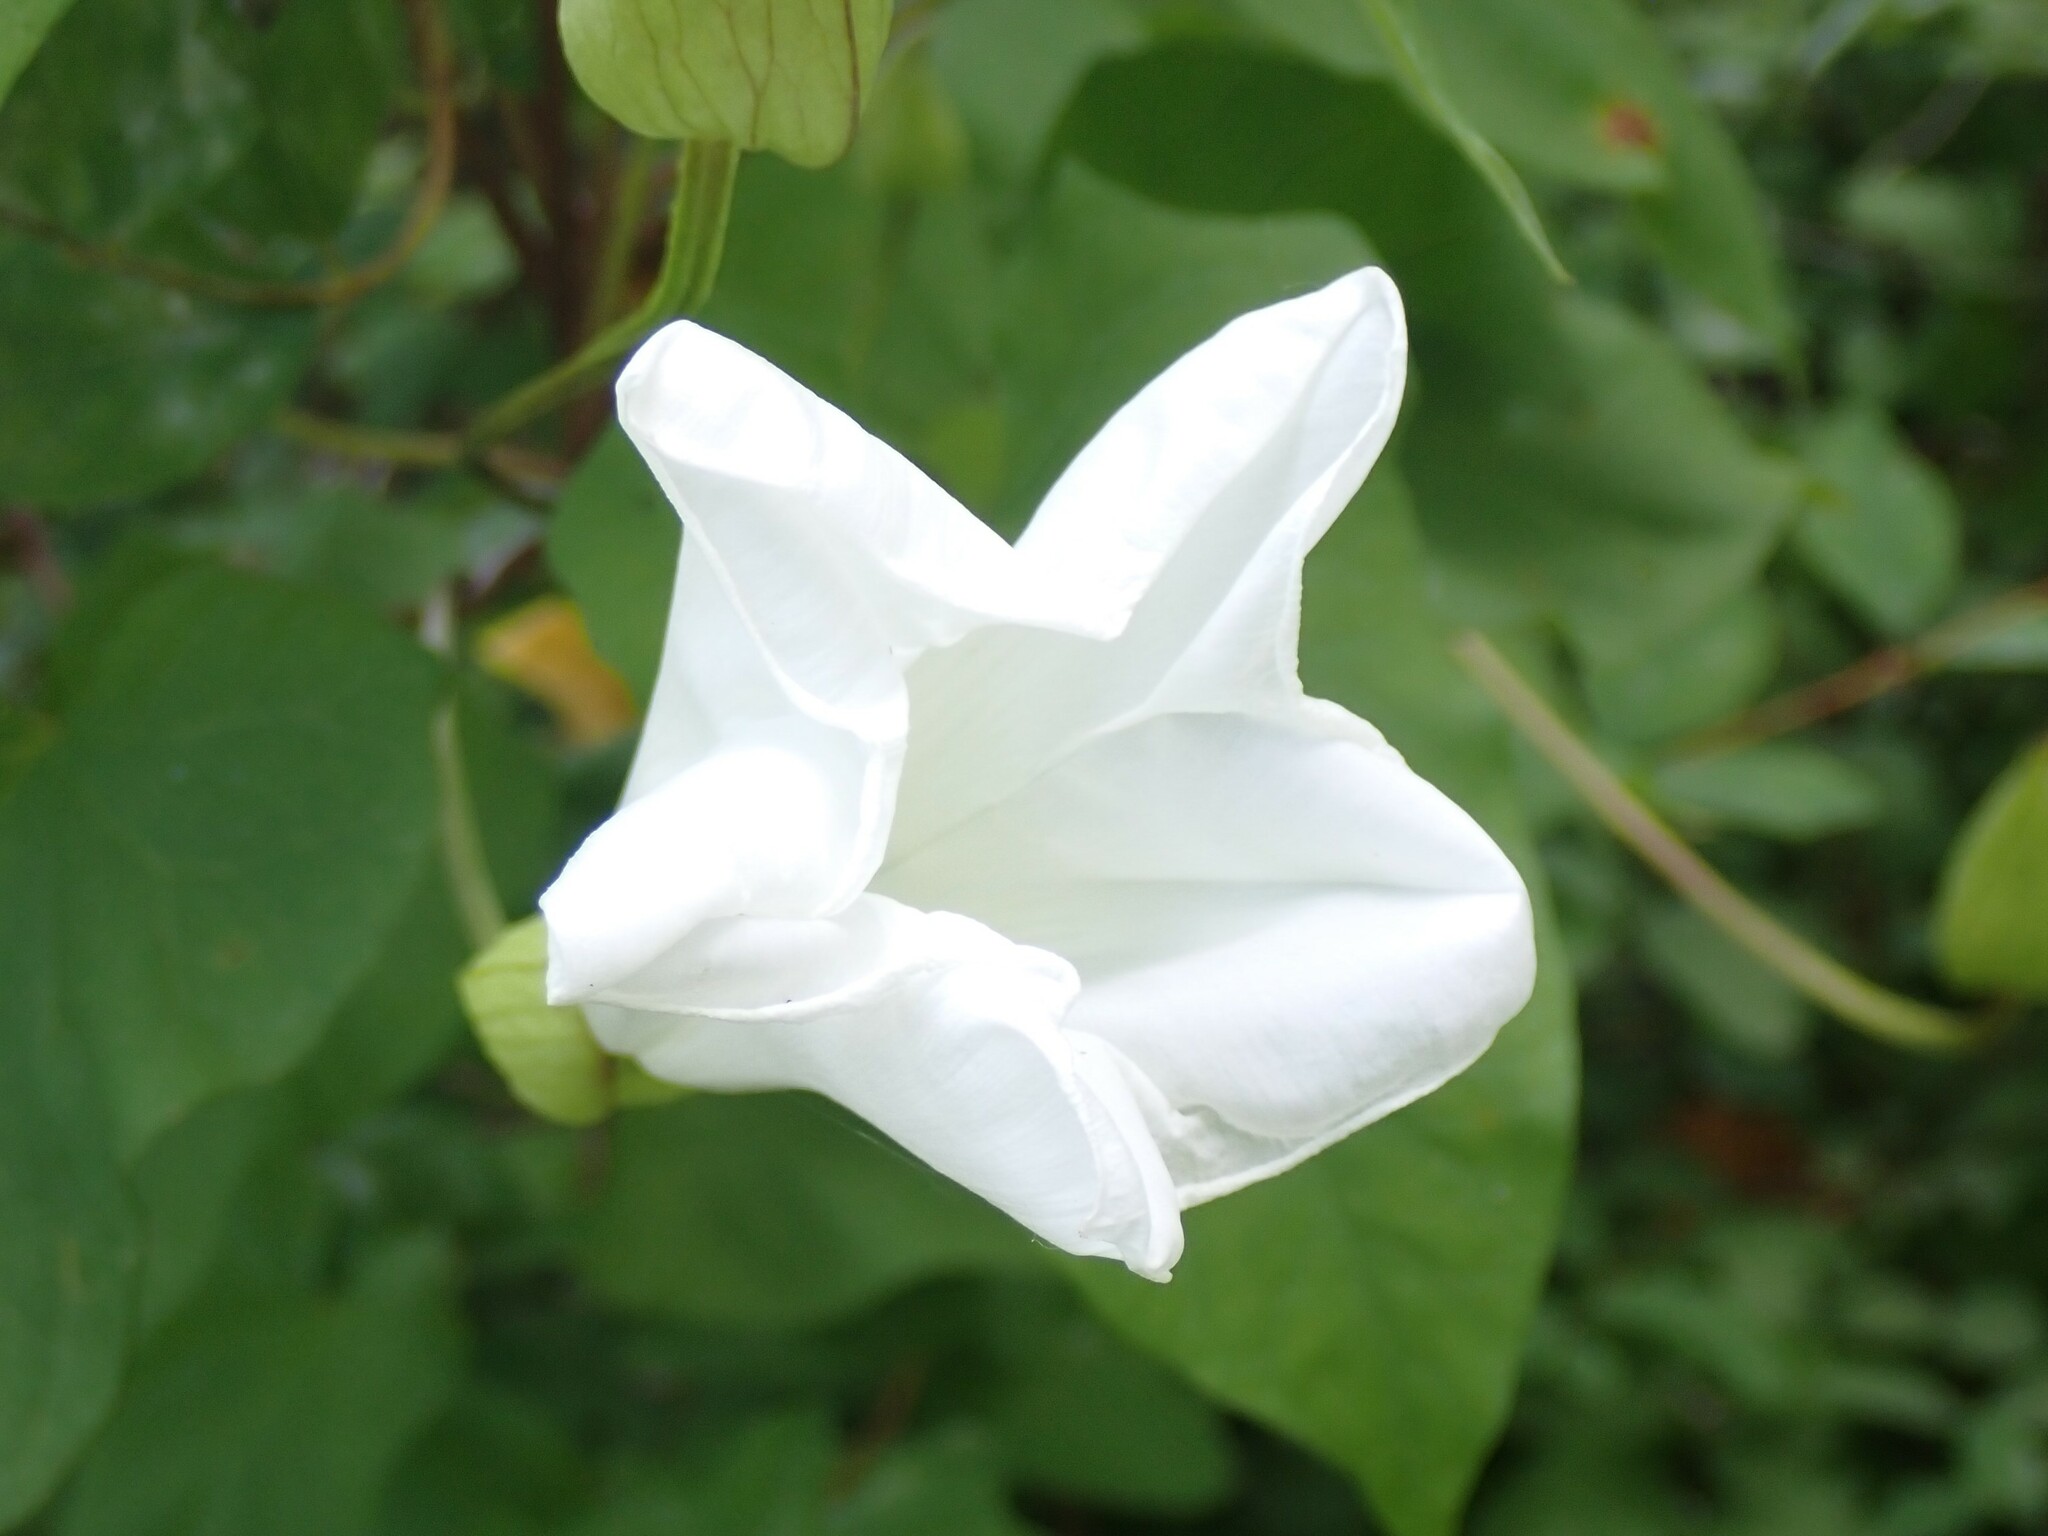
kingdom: Plantae
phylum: Tracheophyta
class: Magnoliopsida
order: Solanales
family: Convolvulaceae
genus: Calystegia
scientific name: Calystegia silvatica
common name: Large bindweed
